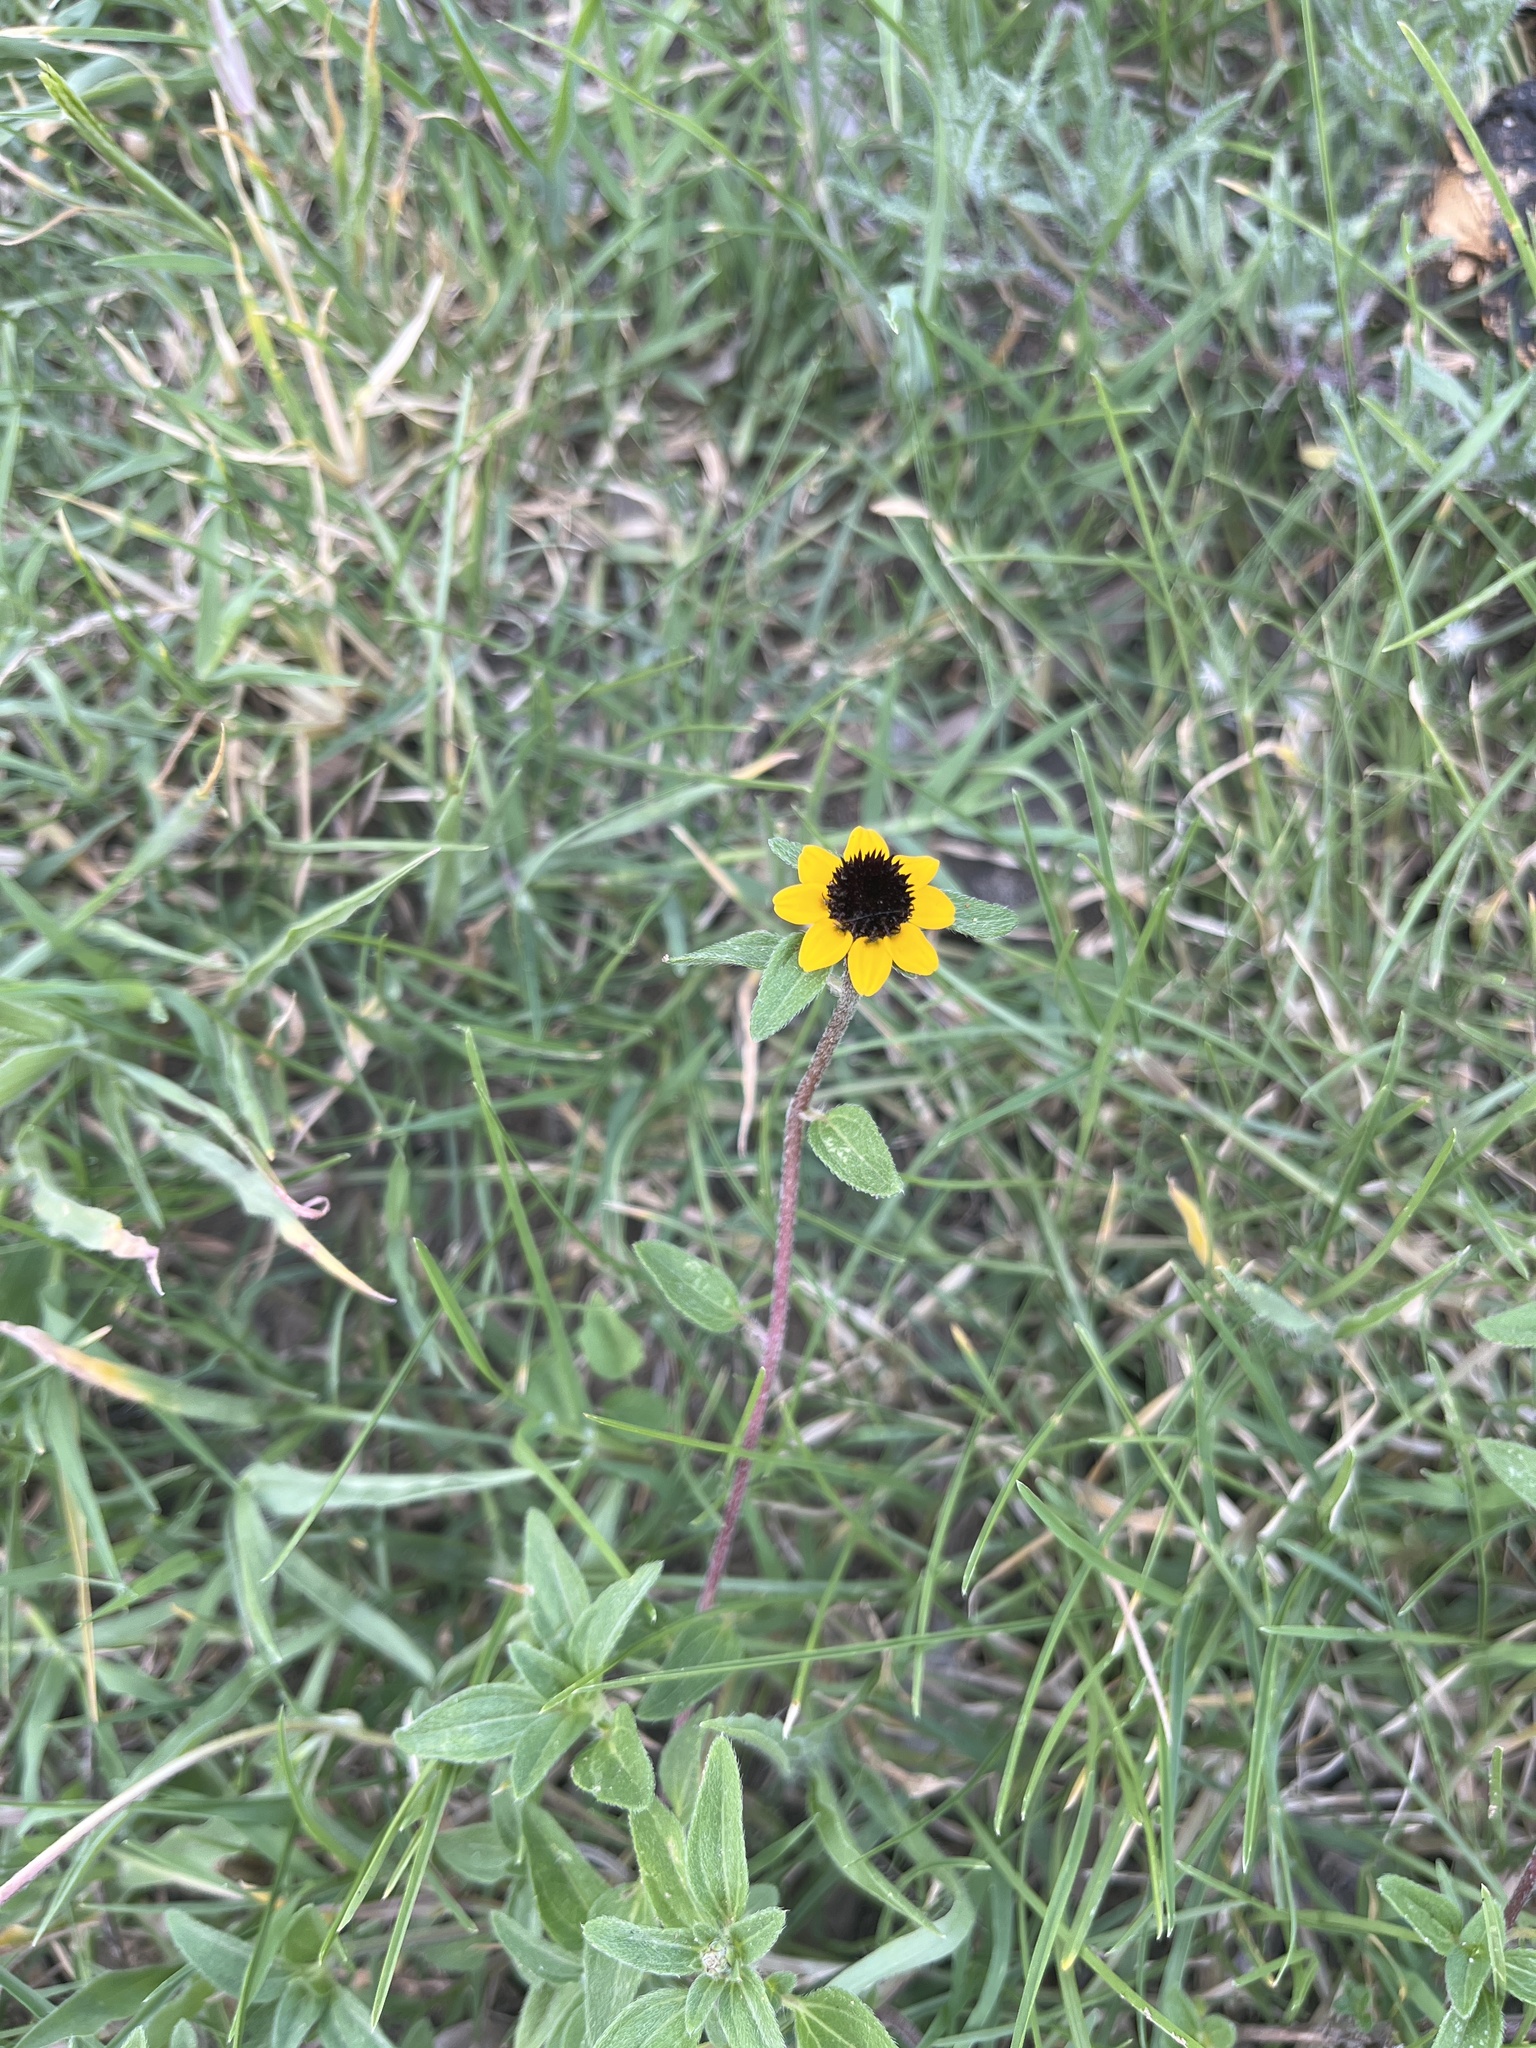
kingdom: Plantae
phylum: Tracheophyta
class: Magnoliopsida
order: Asterales
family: Asteraceae
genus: Sanvitalia
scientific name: Sanvitalia procumbens
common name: Mexican creeping zinnia
